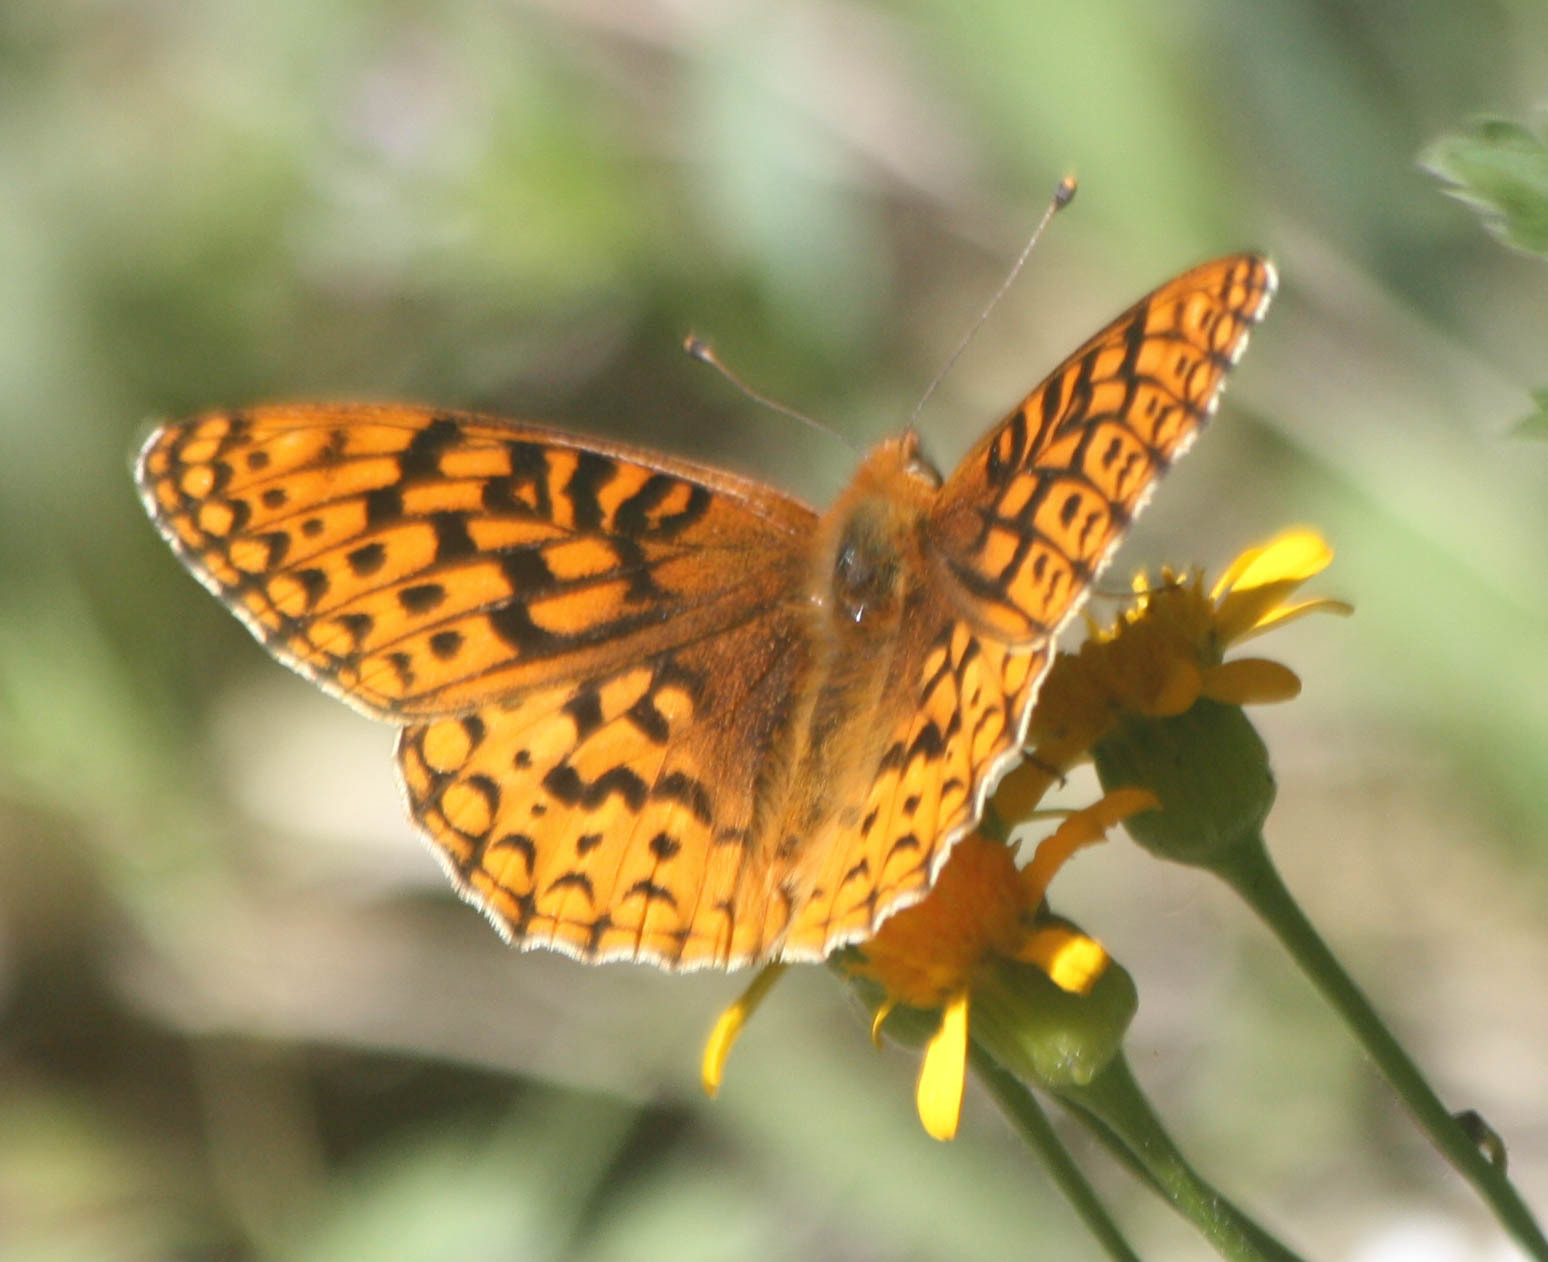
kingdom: Animalia
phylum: Arthropoda
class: Insecta
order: Lepidoptera
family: Nymphalidae
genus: Speyeria
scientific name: Speyeria callippe
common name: Callippe fritillary
